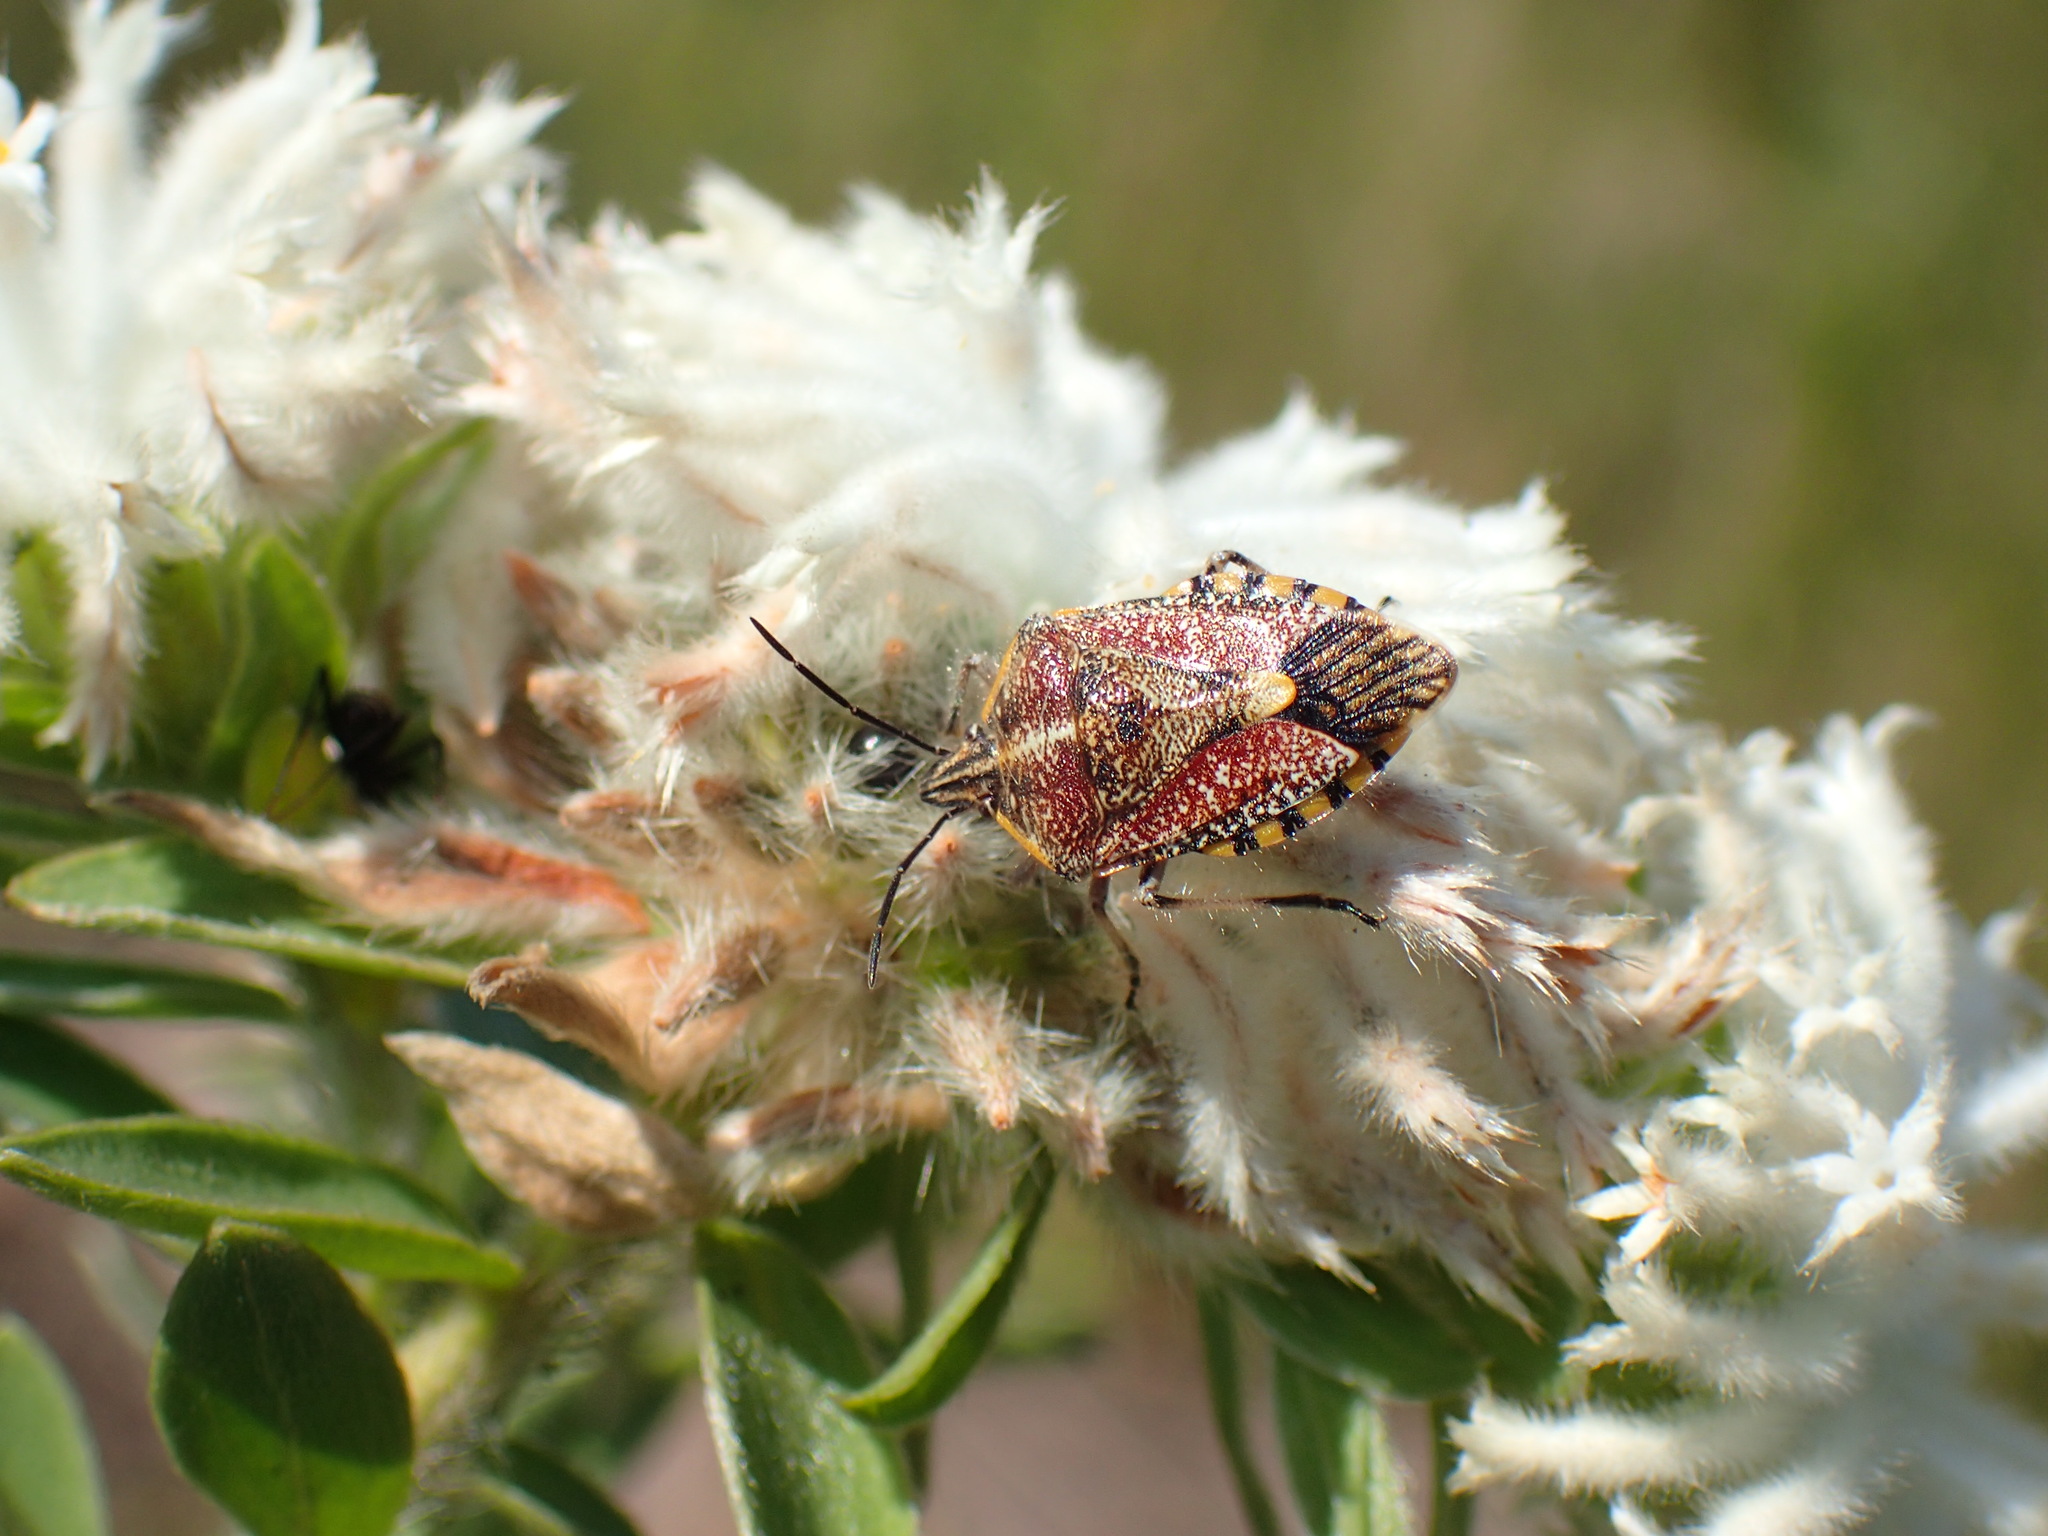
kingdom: Animalia
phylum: Arthropoda
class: Insecta
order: Hemiptera
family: Pentatomidae
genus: Agonoscelis
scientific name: Agonoscelis versicoloratus
